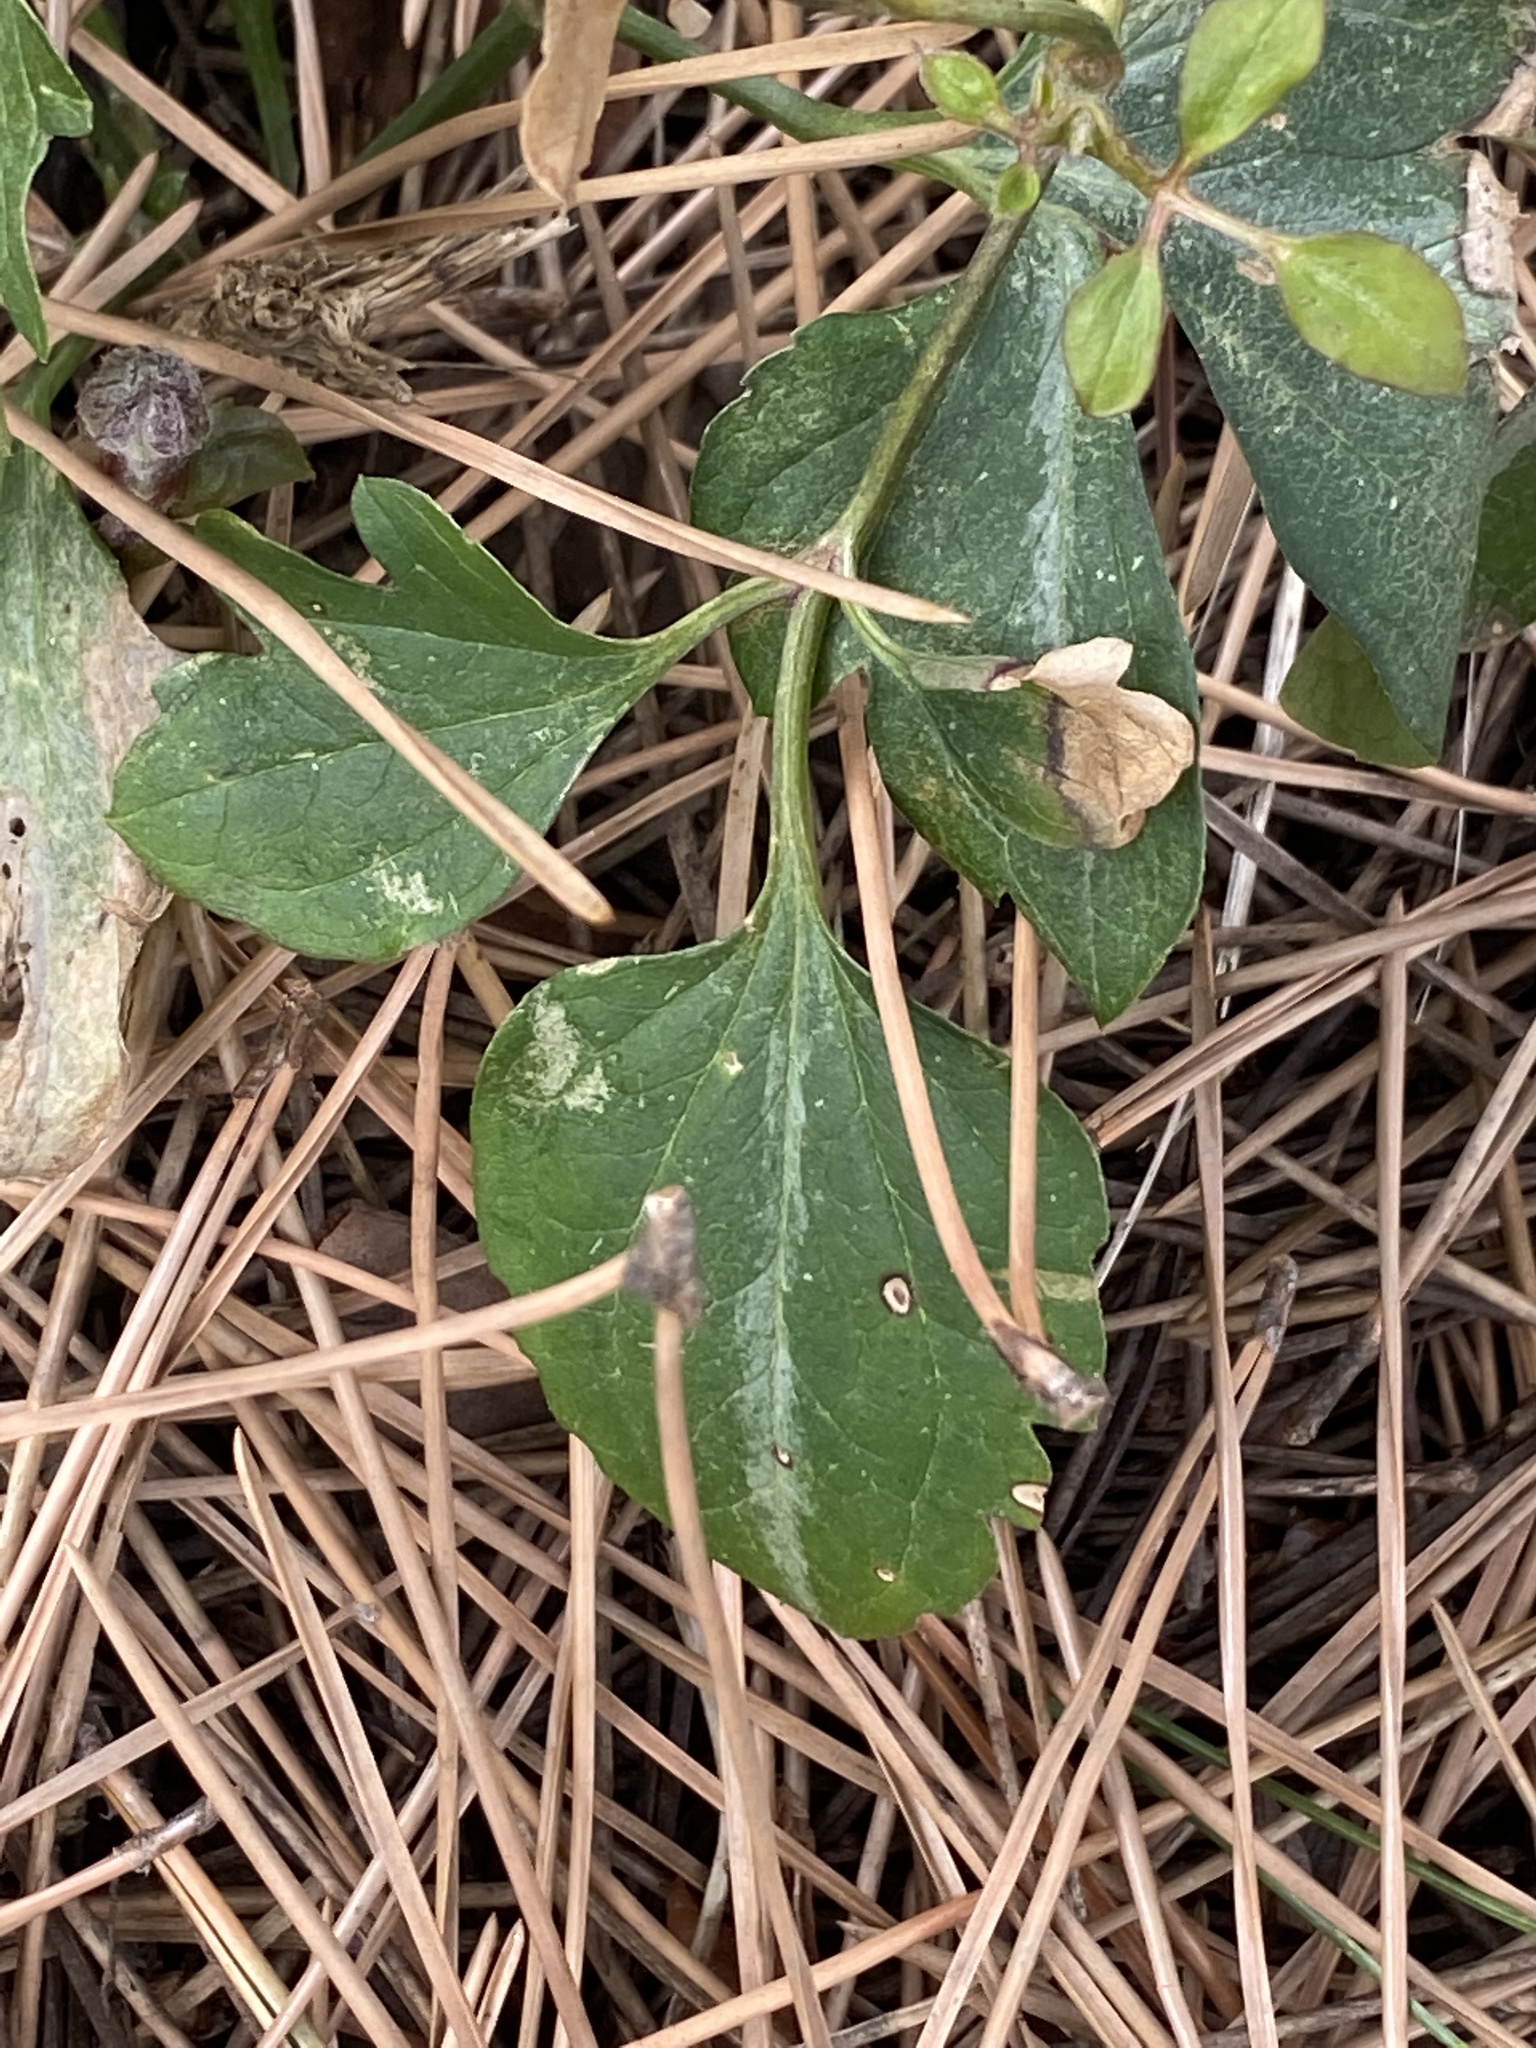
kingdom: Plantae
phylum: Tracheophyta
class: Magnoliopsida
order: Ranunculales
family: Ranunculaceae
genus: Clematis
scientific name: Clematis terniflora
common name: Sweet autumn clematis
